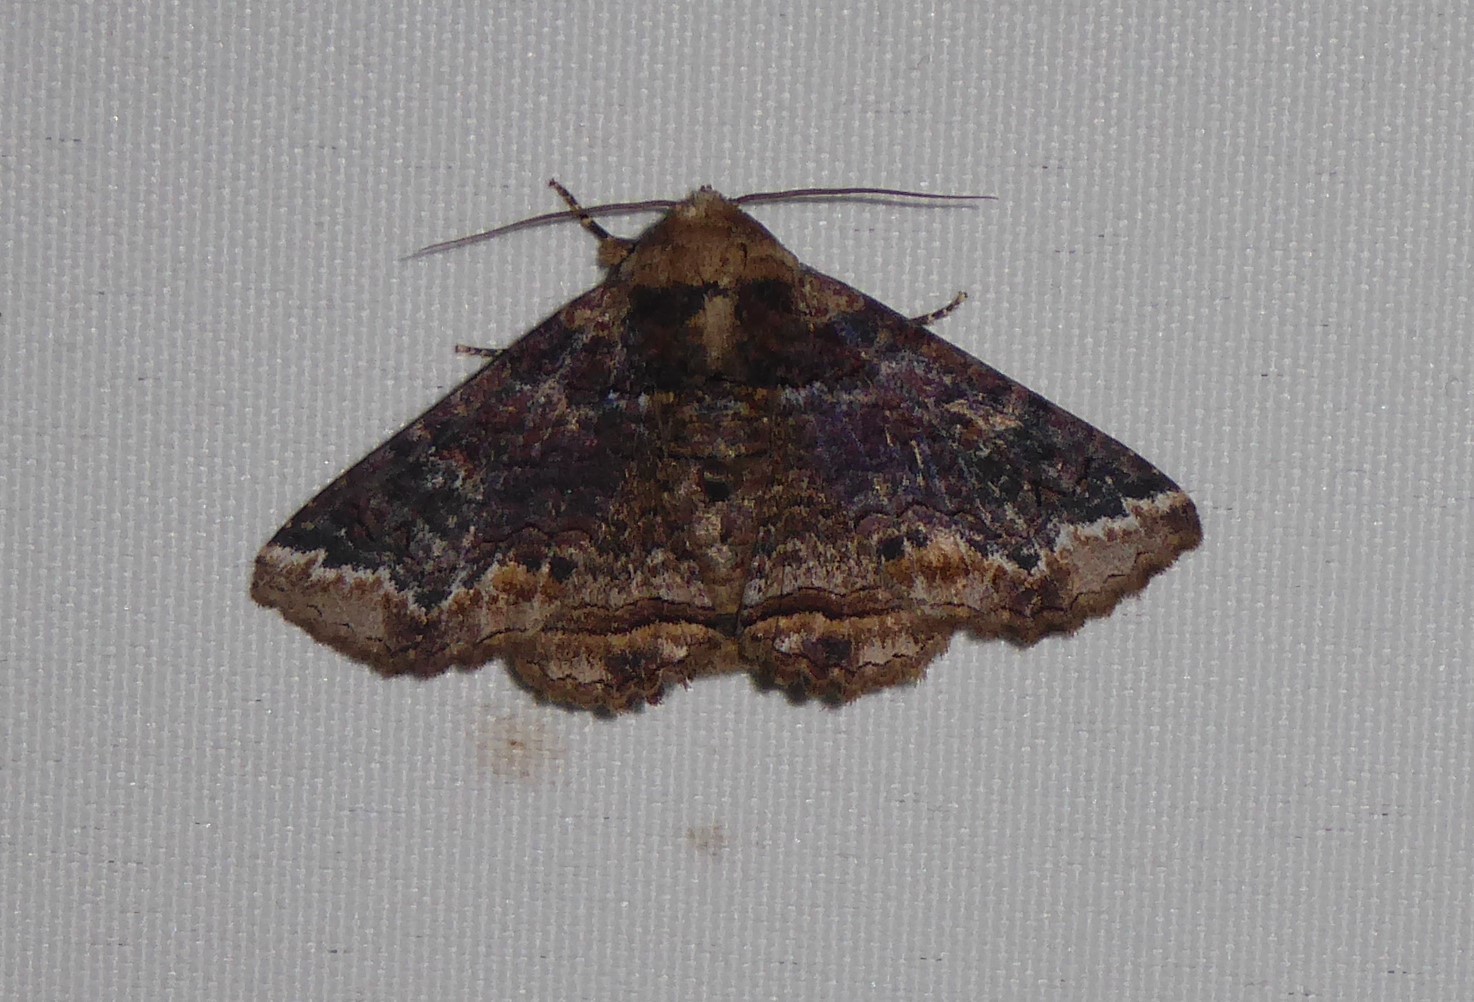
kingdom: Animalia
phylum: Arthropoda
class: Insecta
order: Lepidoptera
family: Erebidae
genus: Pericyma
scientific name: Pericyma cruegeri
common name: Poinciana looper
